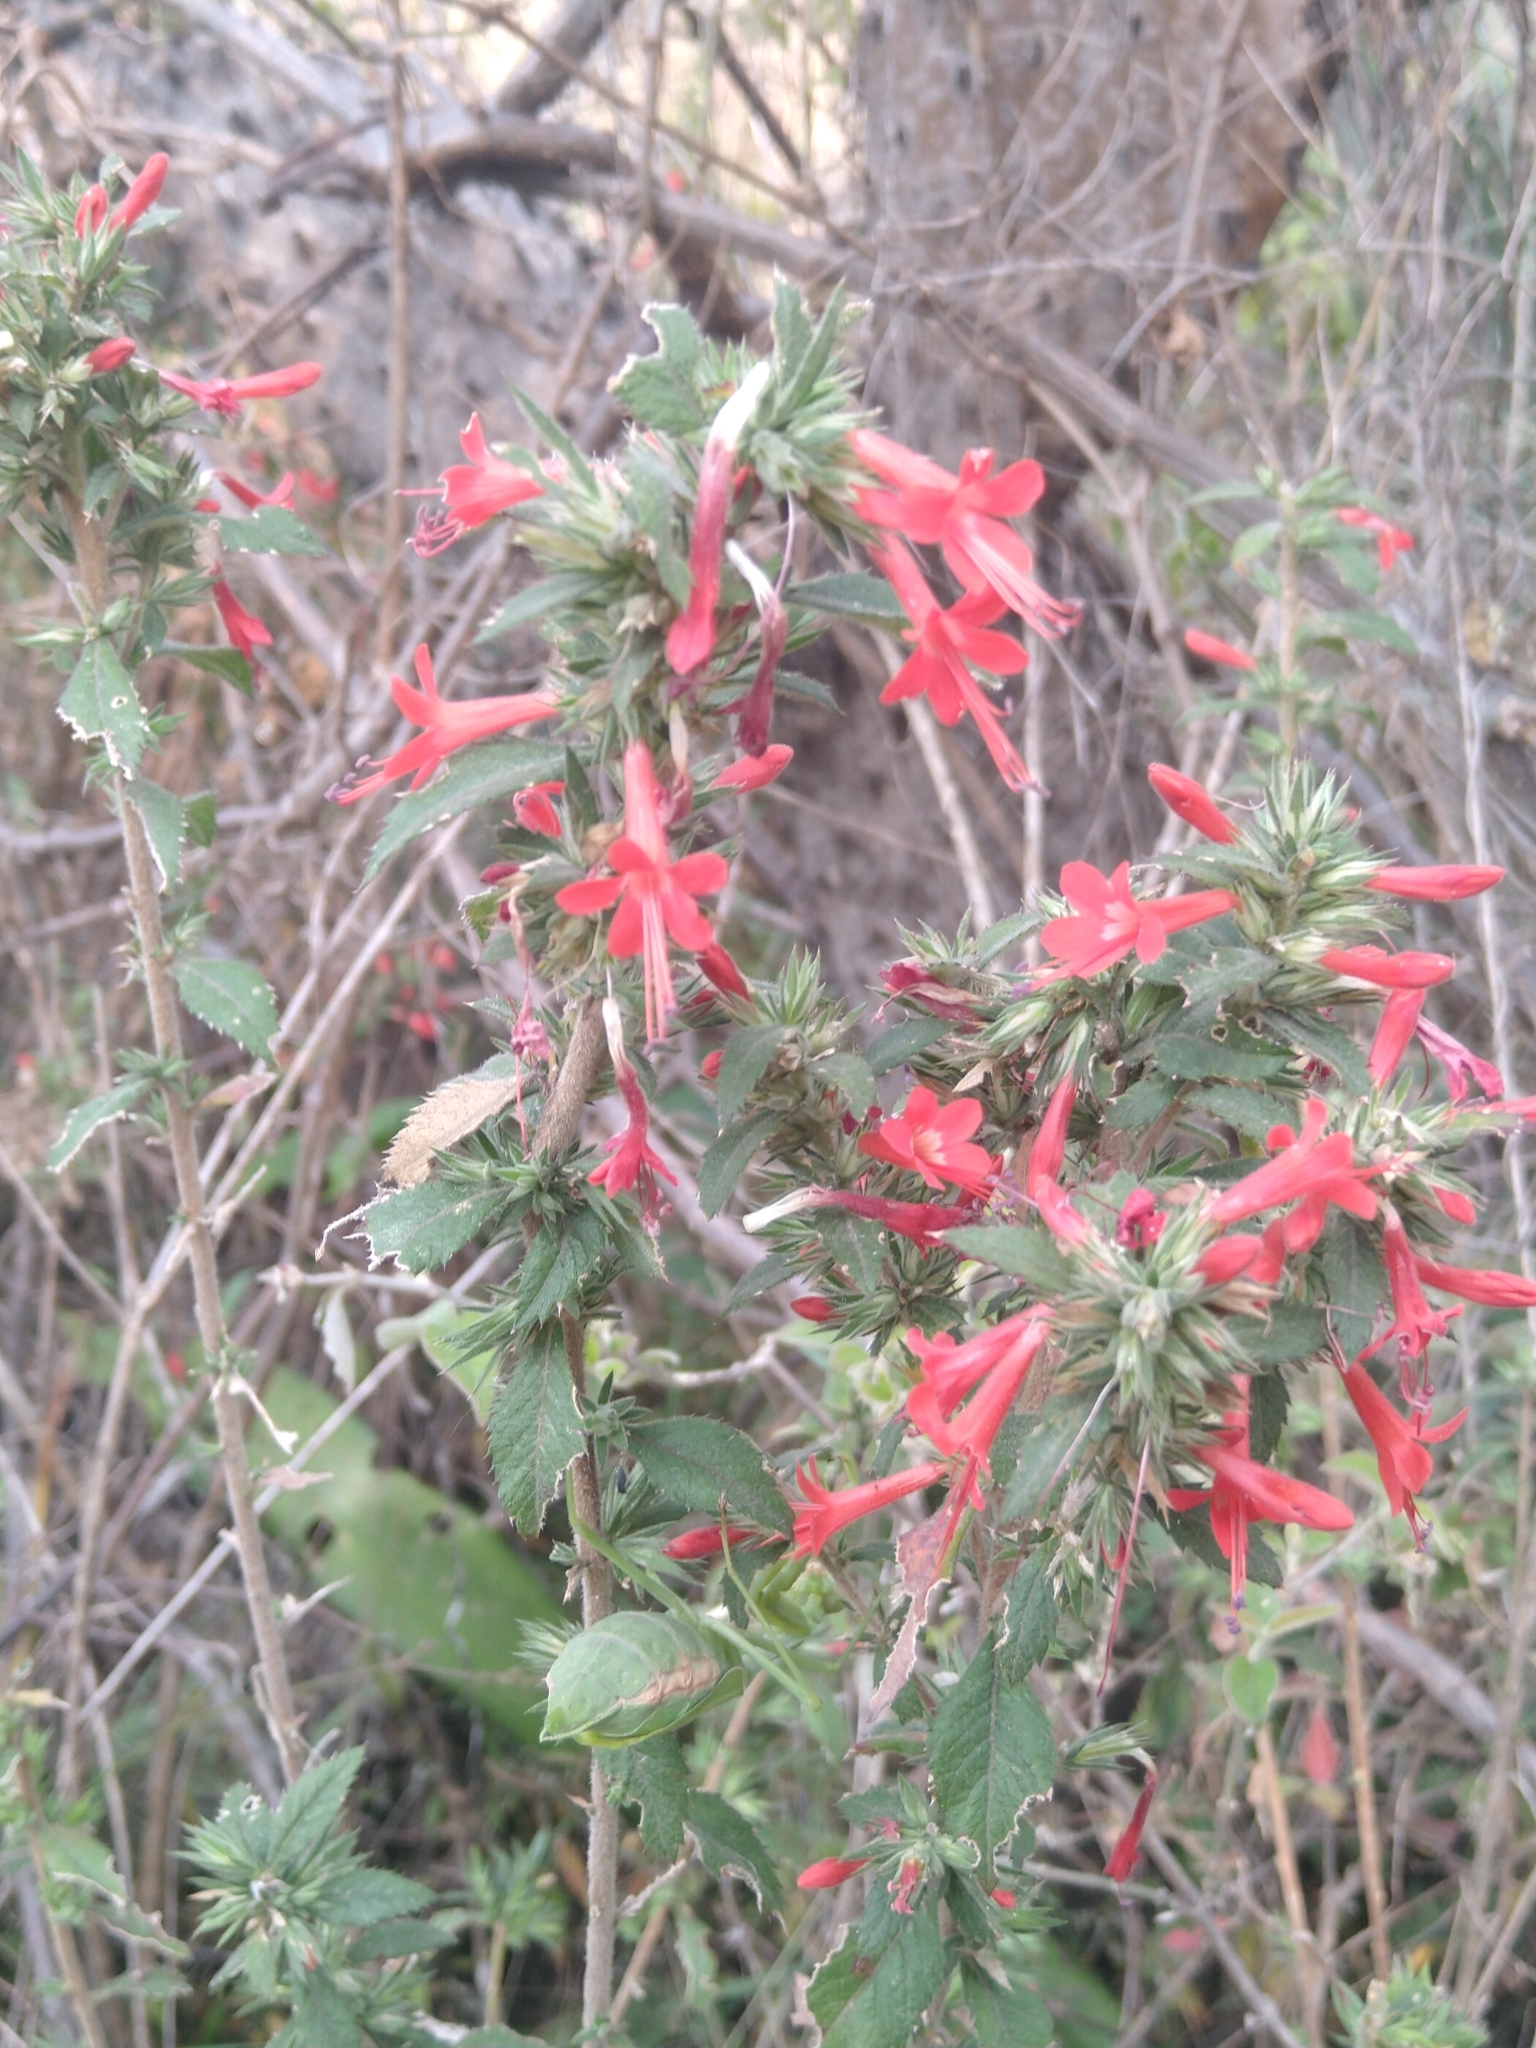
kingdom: Plantae
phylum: Tracheophyta
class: Magnoliopsida
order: Ericales
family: Polemoniaceae
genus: Loeselia
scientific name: Loeselia mexicana
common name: Mexican false calico
